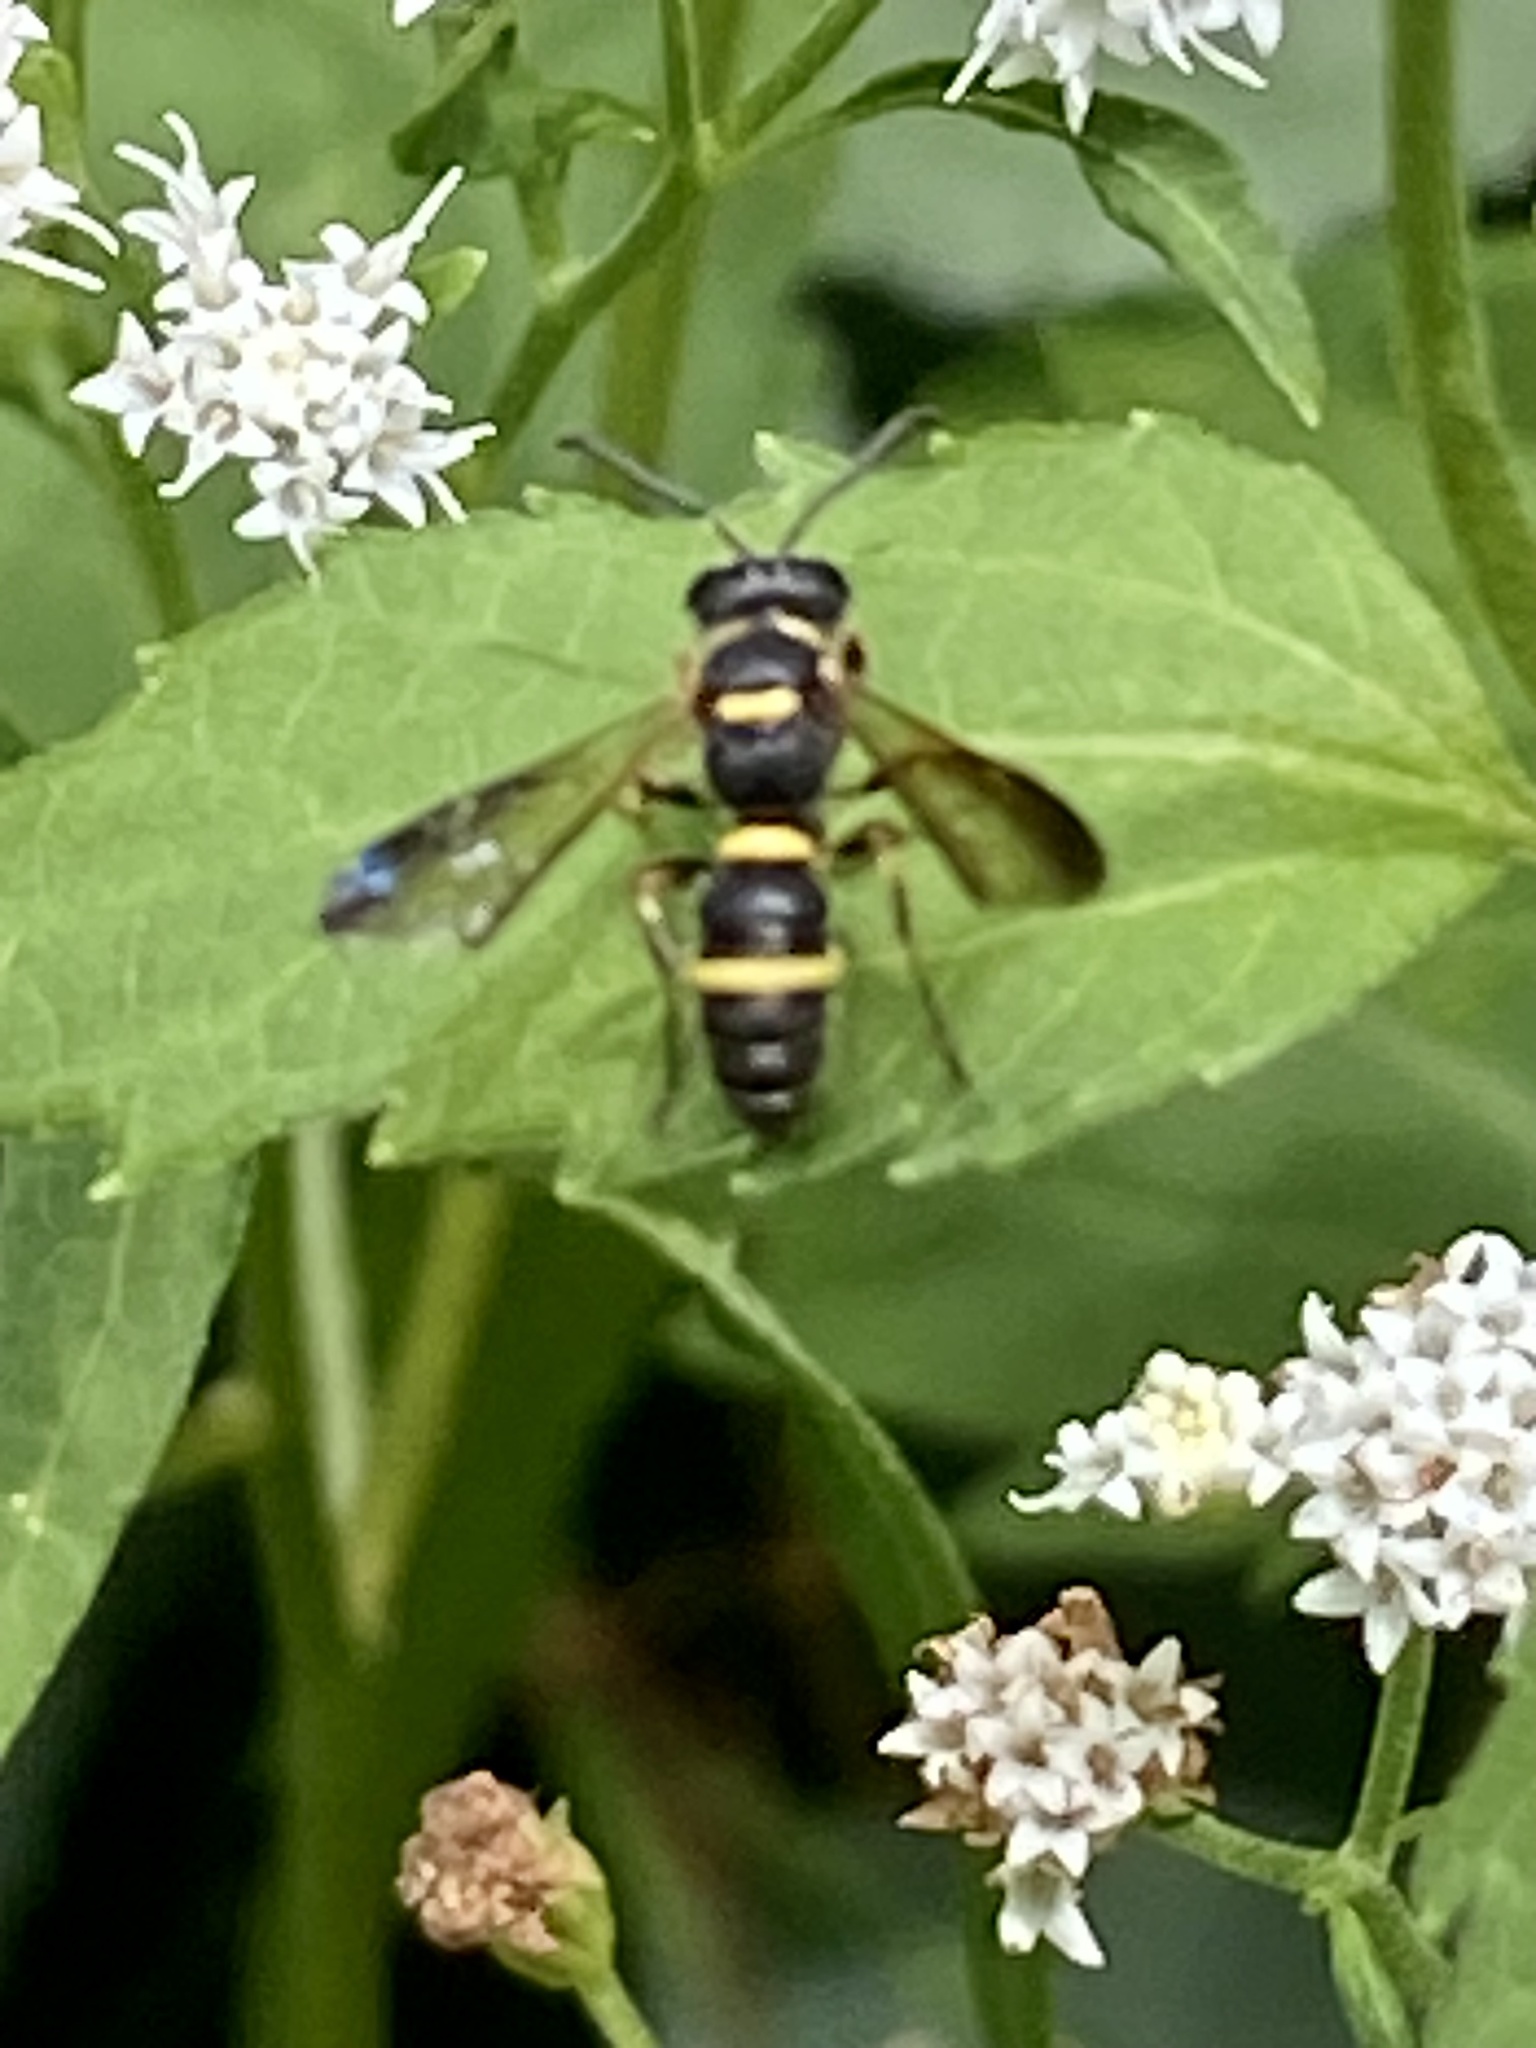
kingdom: Animalia
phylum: Arthropoda
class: Insecta
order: Hymenoptera
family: Crabronidae
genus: Cerceris
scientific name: Cerceris insolita
